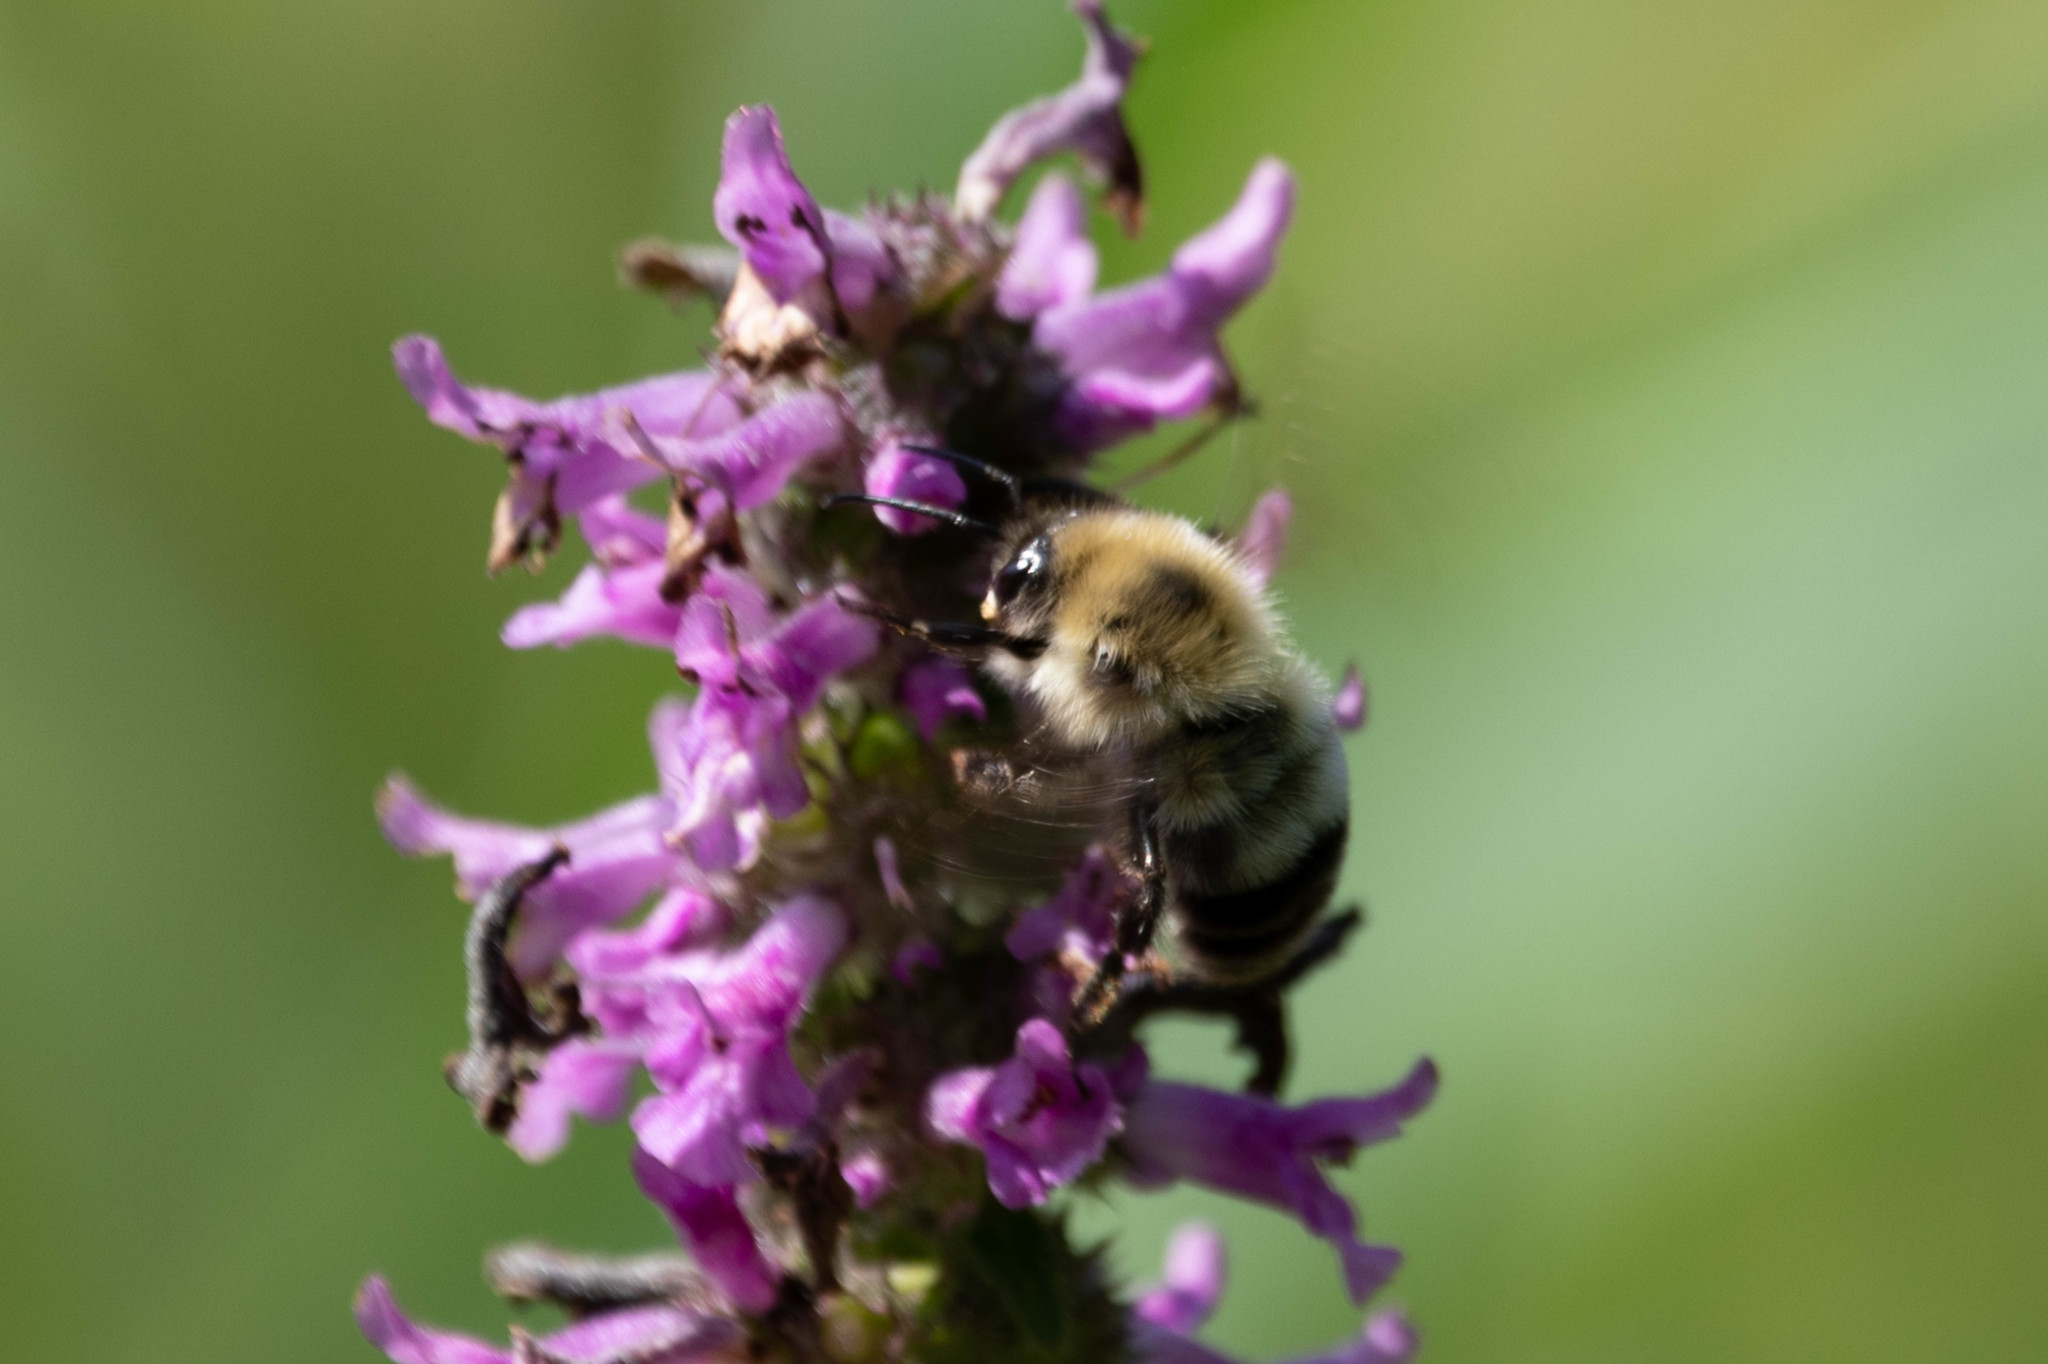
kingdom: Animalia
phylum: Arthropoda
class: Insecta
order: Hymenoptera
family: Apidae
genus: Bombus
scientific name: Bombus bimaculatus
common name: Two-spotted bumble bee
